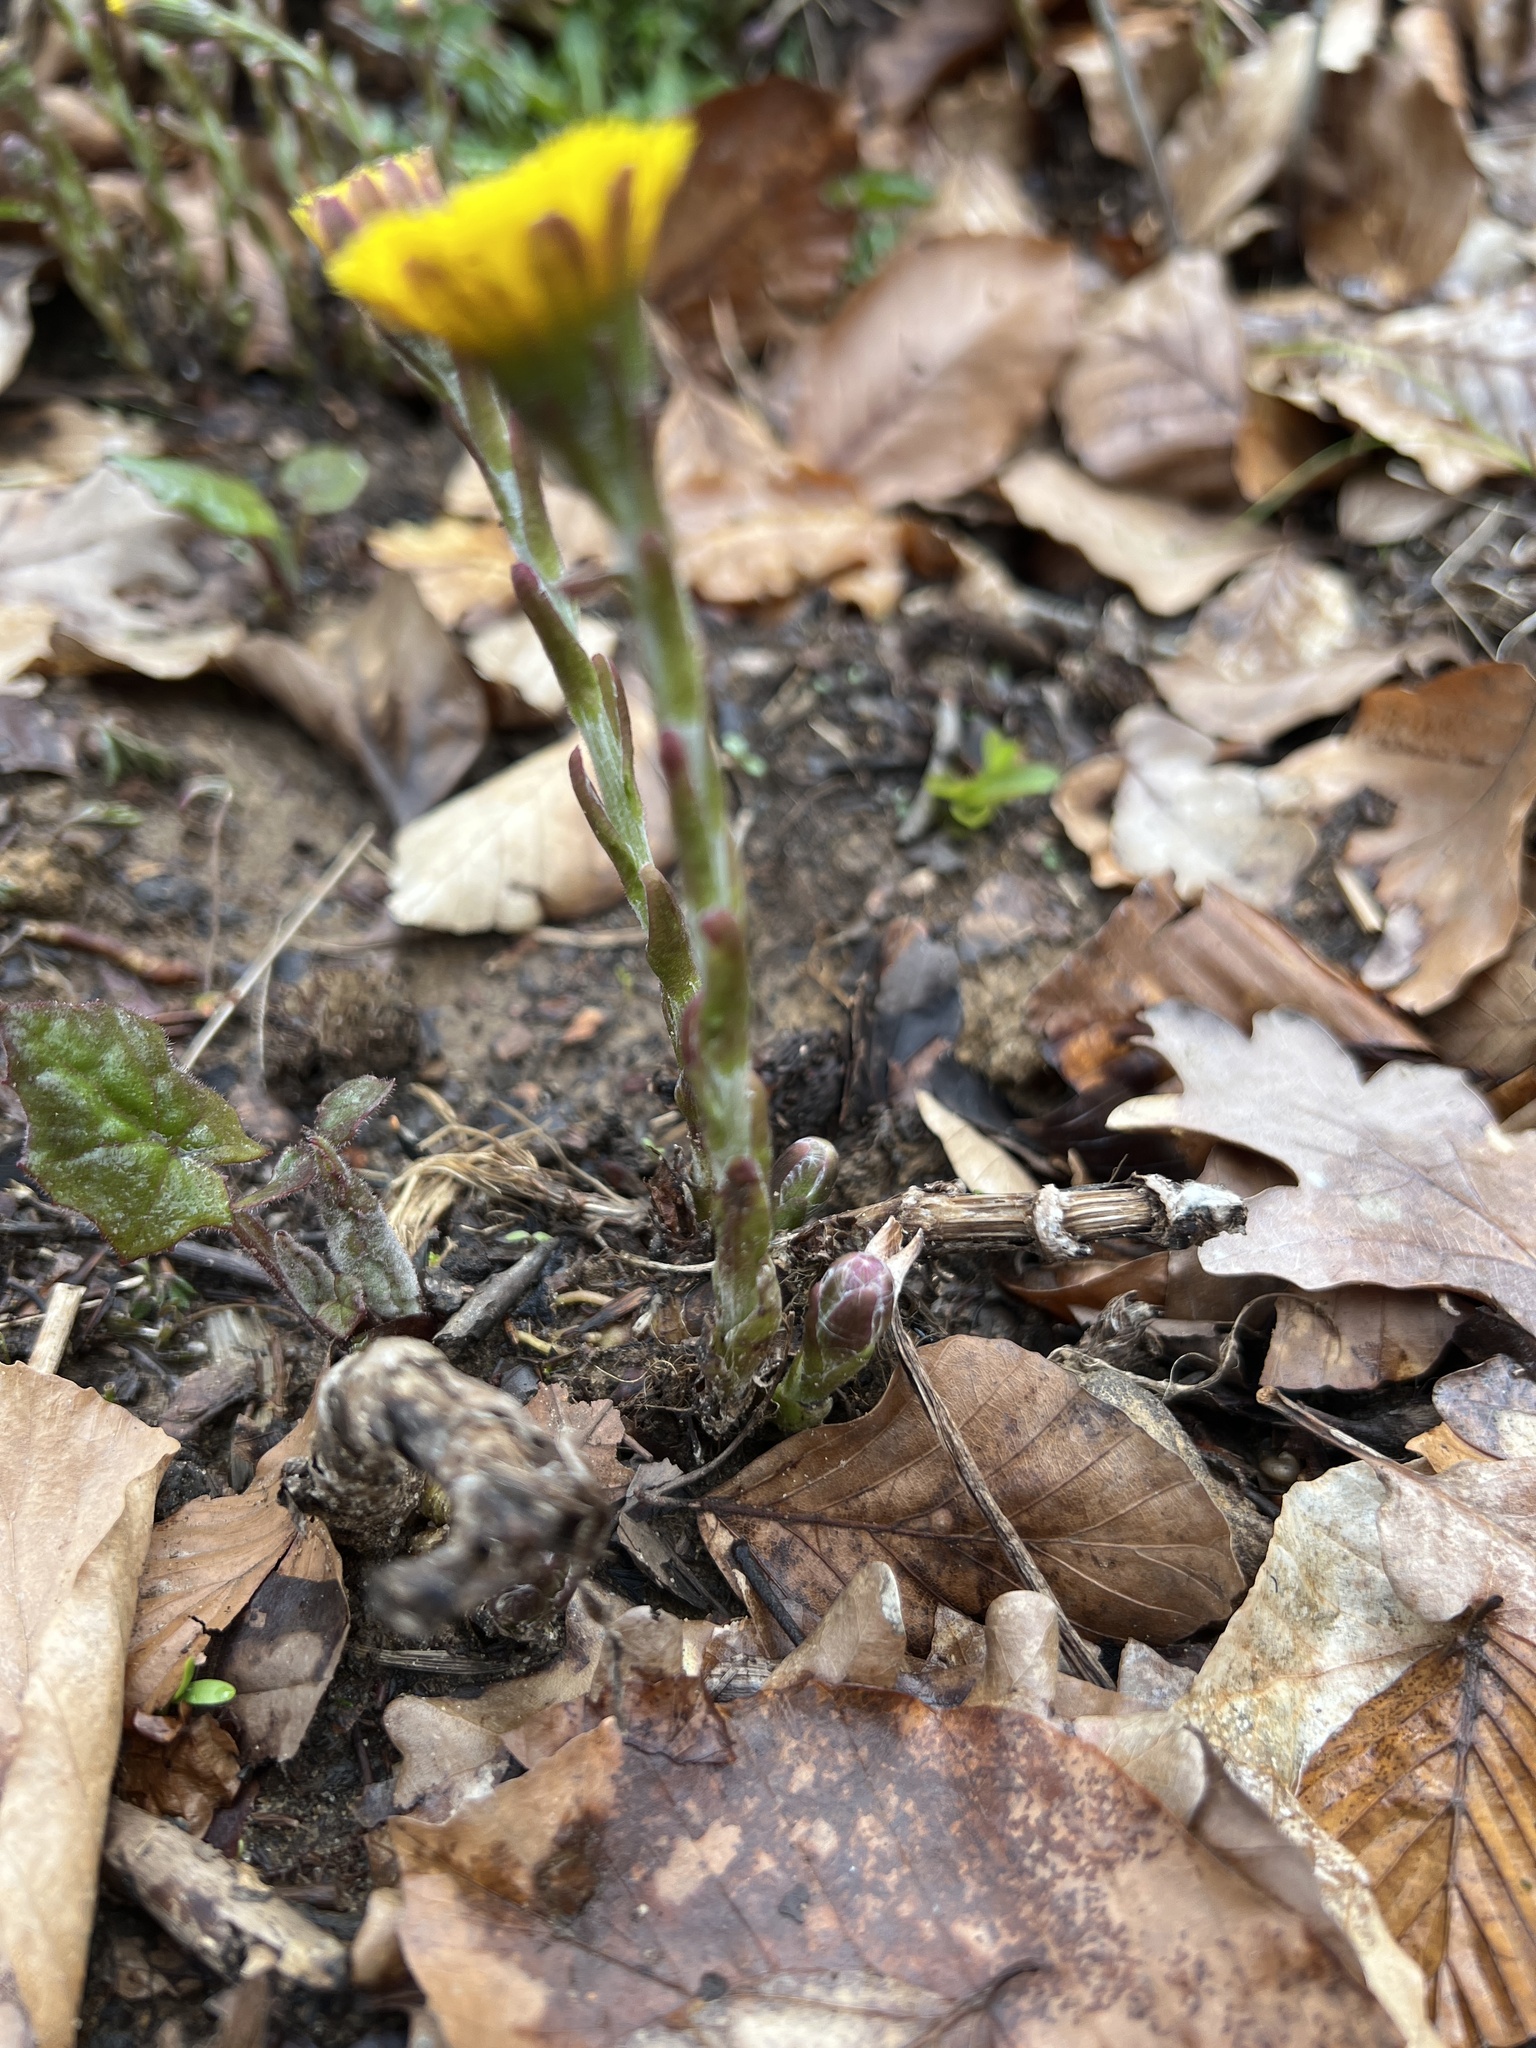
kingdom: Plantae
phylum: Tracheophyta
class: Magnoliopsida
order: Asterales
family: Asteraceae
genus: Tussilago
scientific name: Tussilago farfara
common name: Coltsfoot
